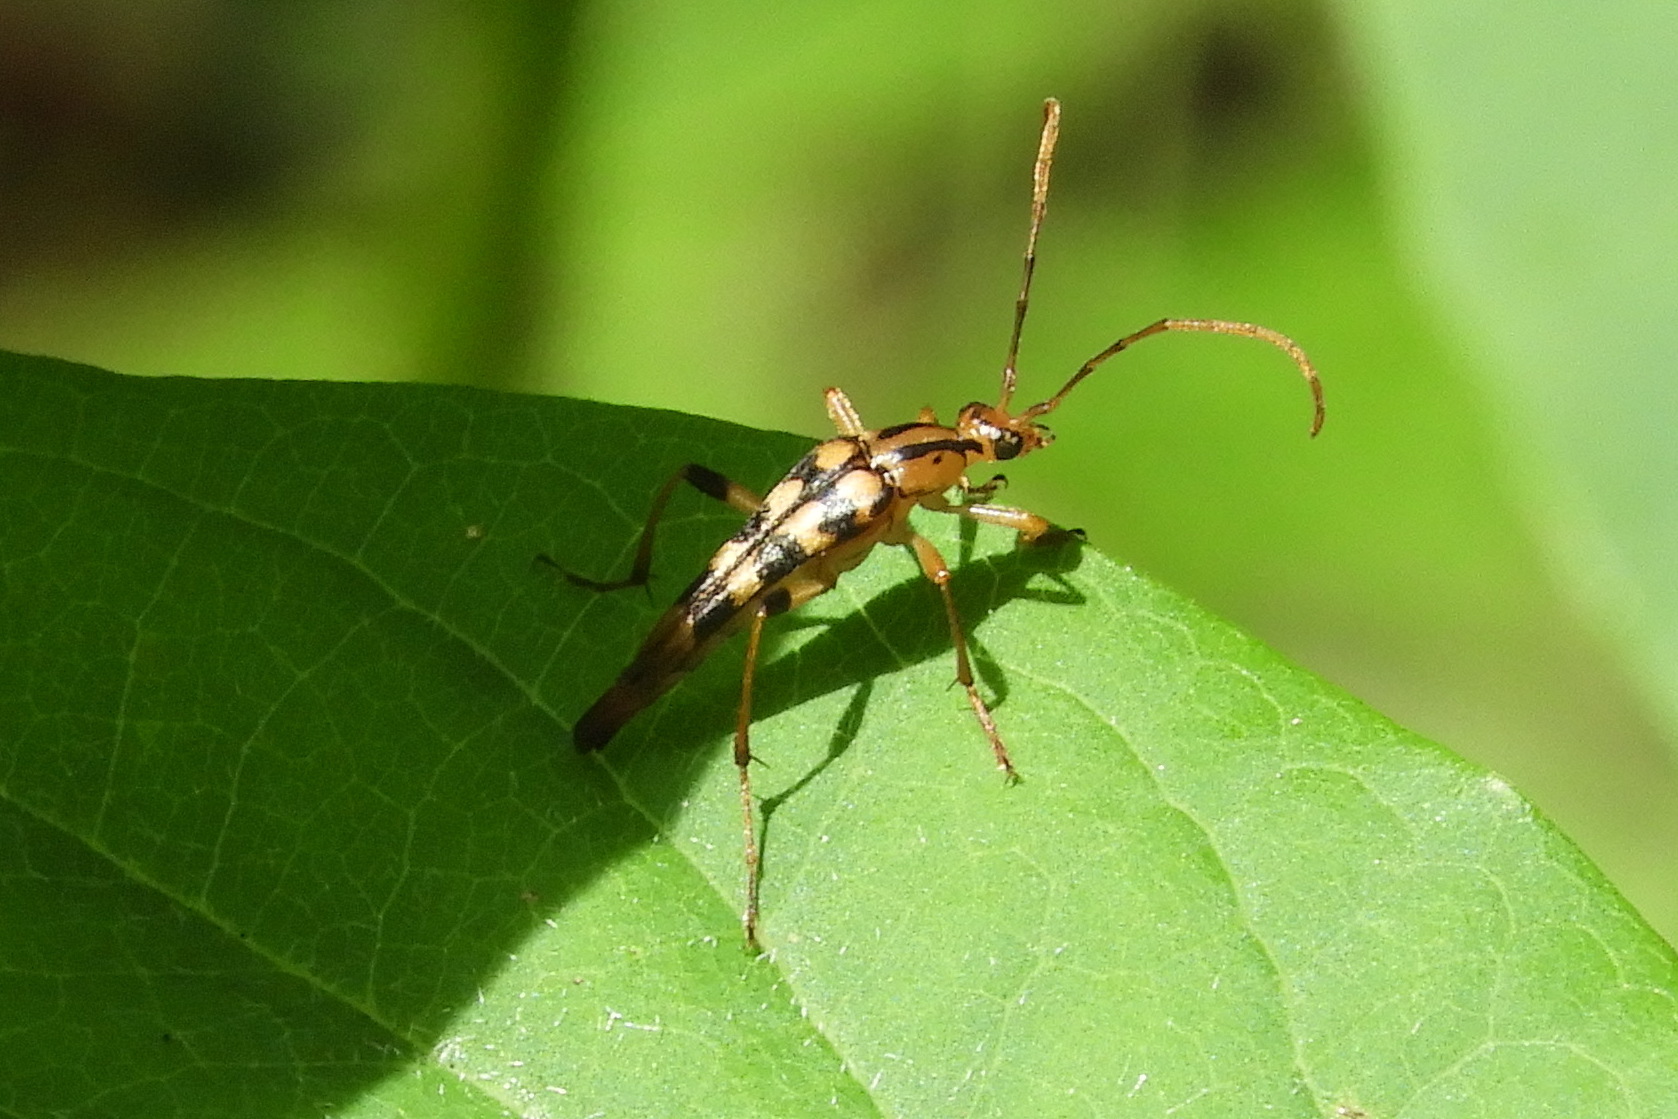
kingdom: Animalia
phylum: Arthropoda
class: Insecta
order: Coleoptera
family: Cerambycidae
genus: Strangalia
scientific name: Strangalia luteicornis
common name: Yellow-horned flower longhorn beetle
